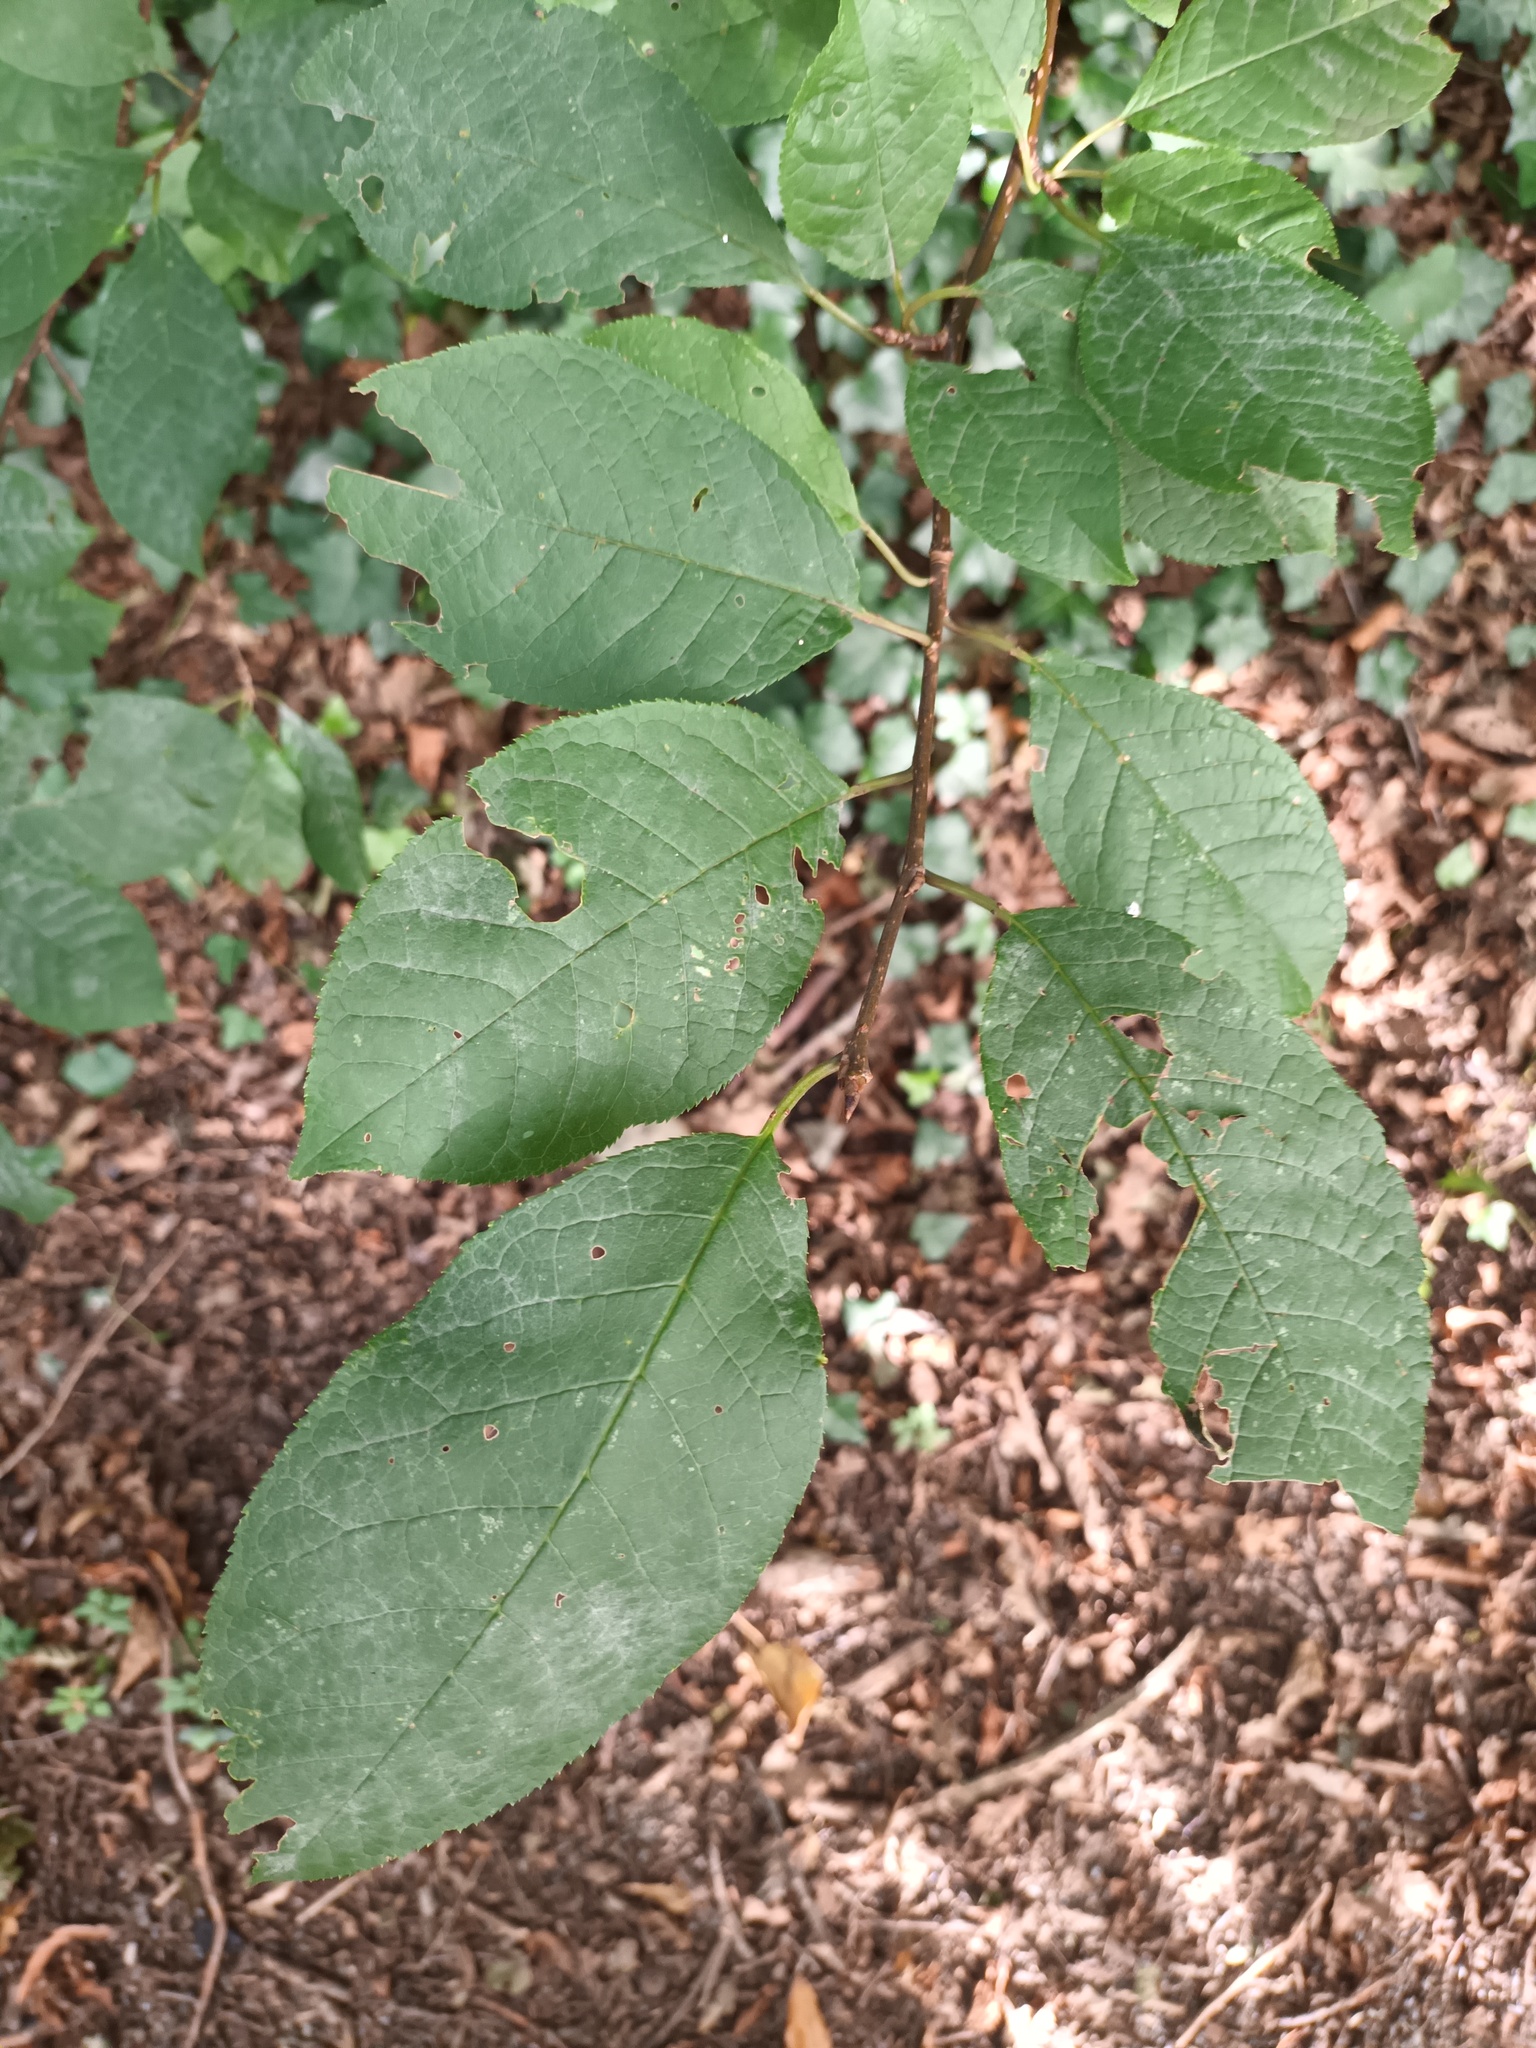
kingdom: Plantae
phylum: Tracheophyta
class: Magnoliopsida
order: Rosales
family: Rosaceae
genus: Prunus
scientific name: Prunus padus
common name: Bird cherry
